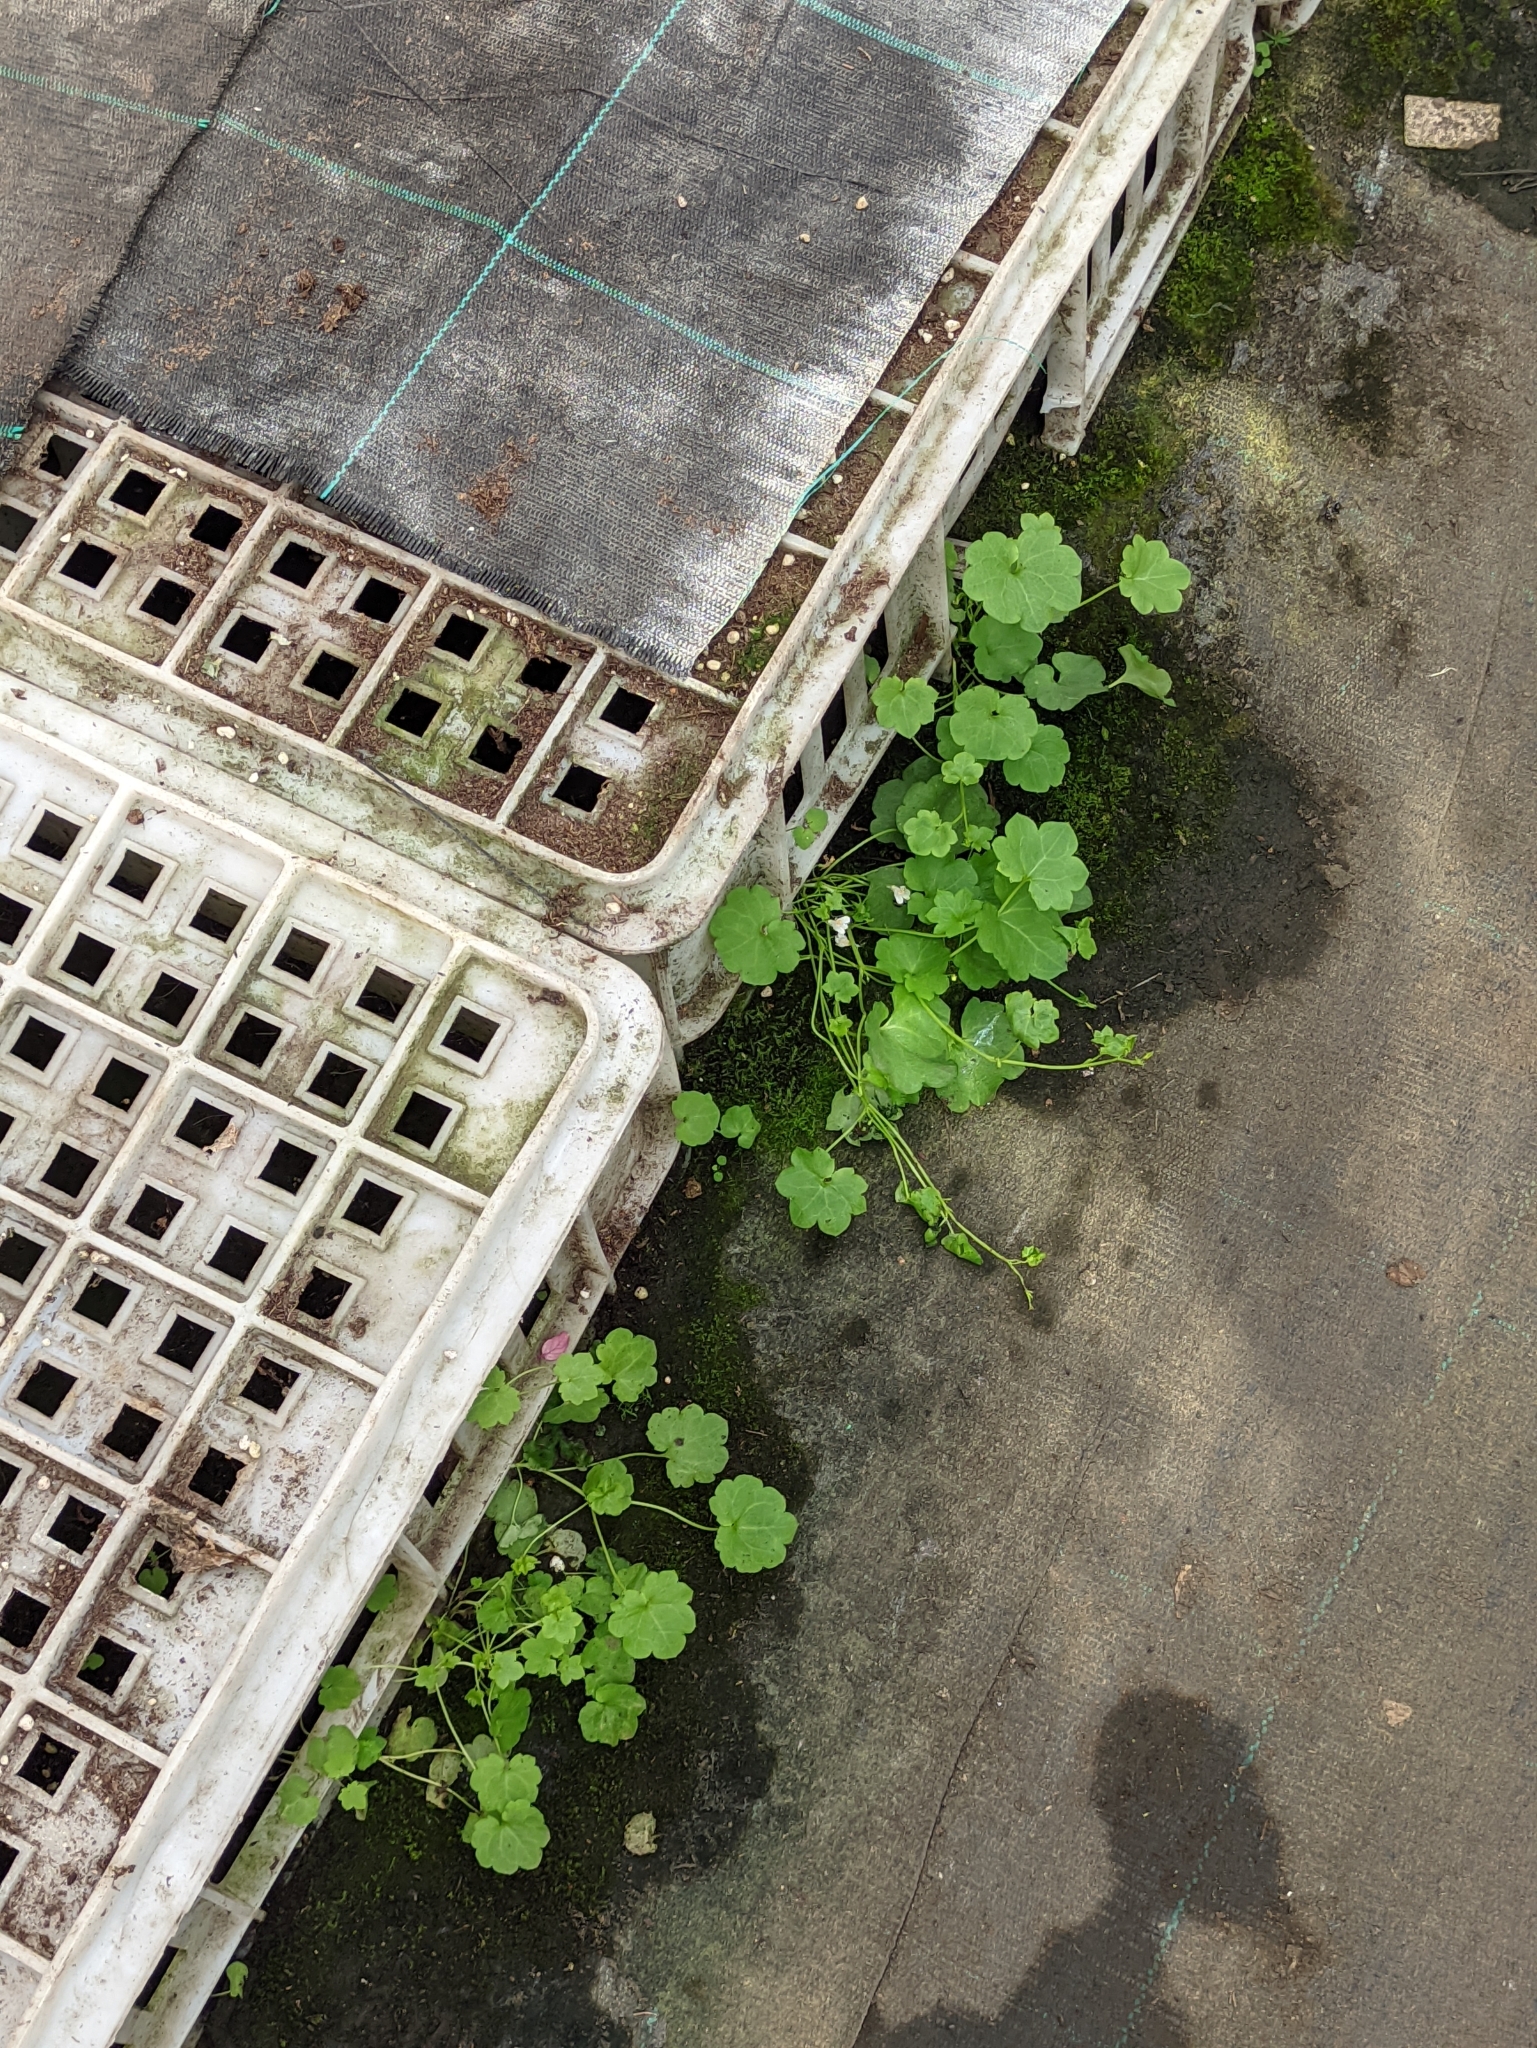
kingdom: Plantae
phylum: Tracheophyta
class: Magnoliopsida
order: Lamiales
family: Plantaginaceae
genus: Cymbalaria
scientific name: Cymbalaria muralis
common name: Ivy-leaved toadflax
